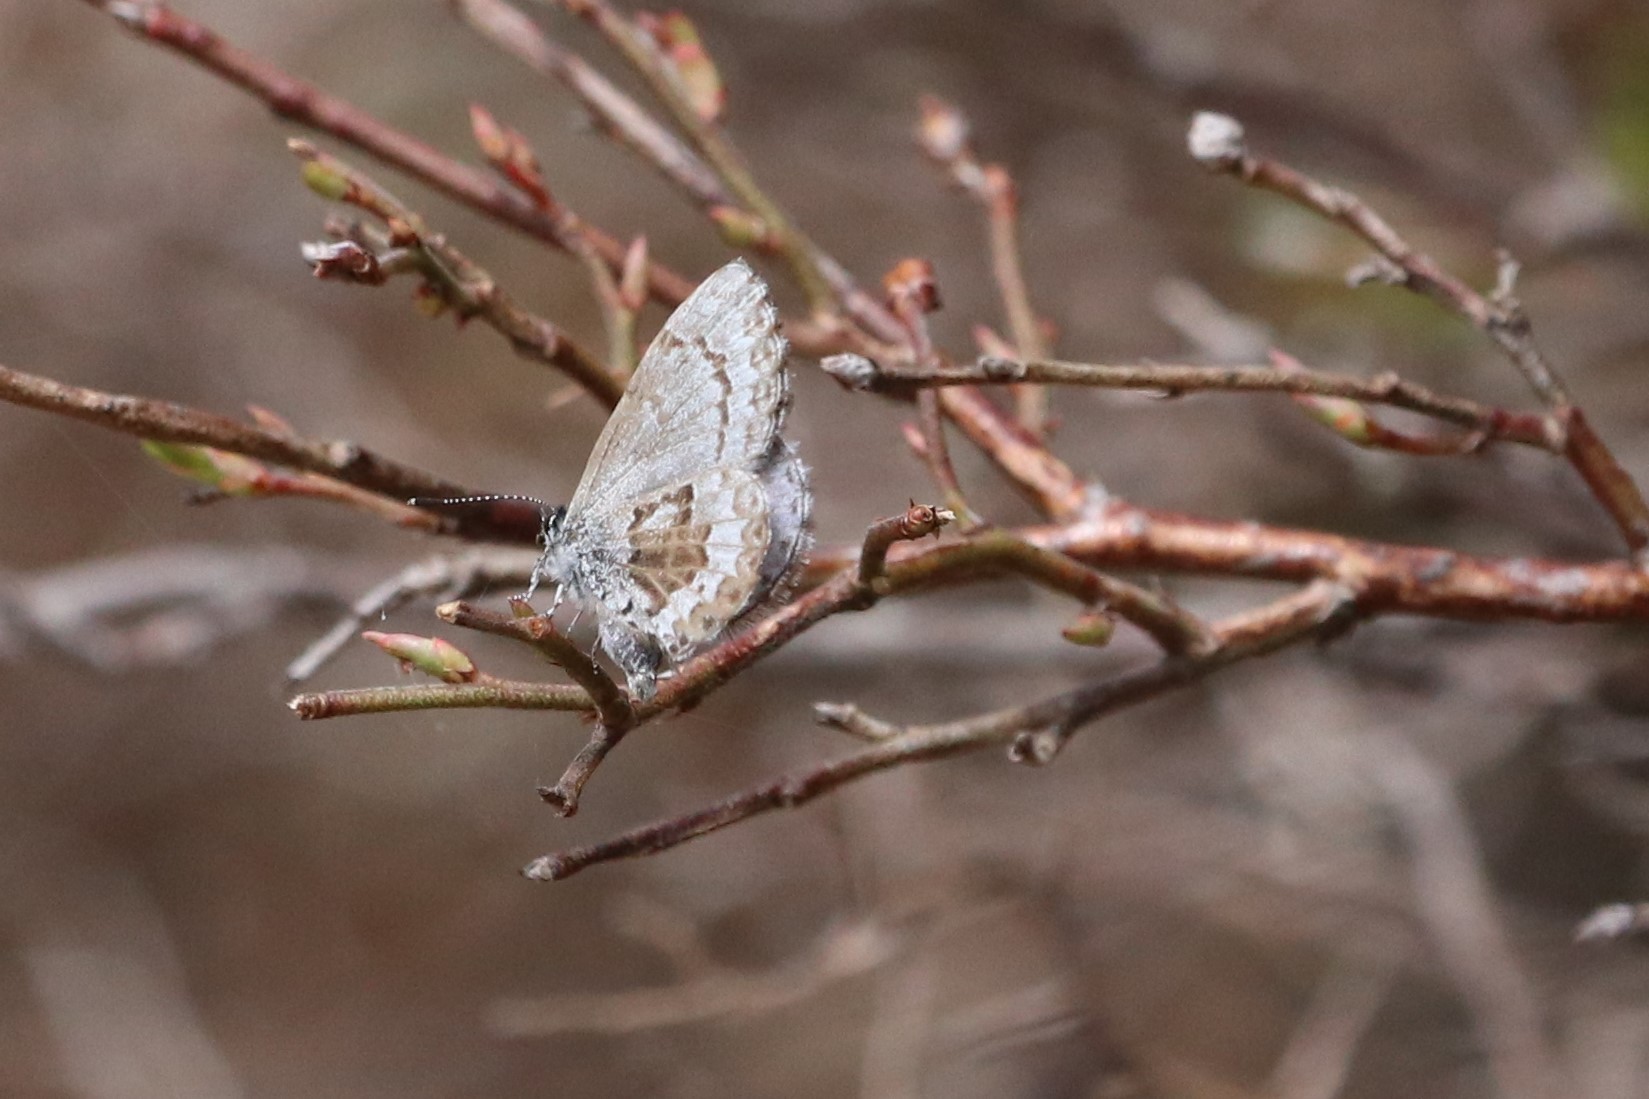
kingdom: Animalia
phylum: Arthropoda
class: Insecta
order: Lepidoptera
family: Lycaenidae
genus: Celastrina
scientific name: Celastrina lucia
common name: Lucia azure
